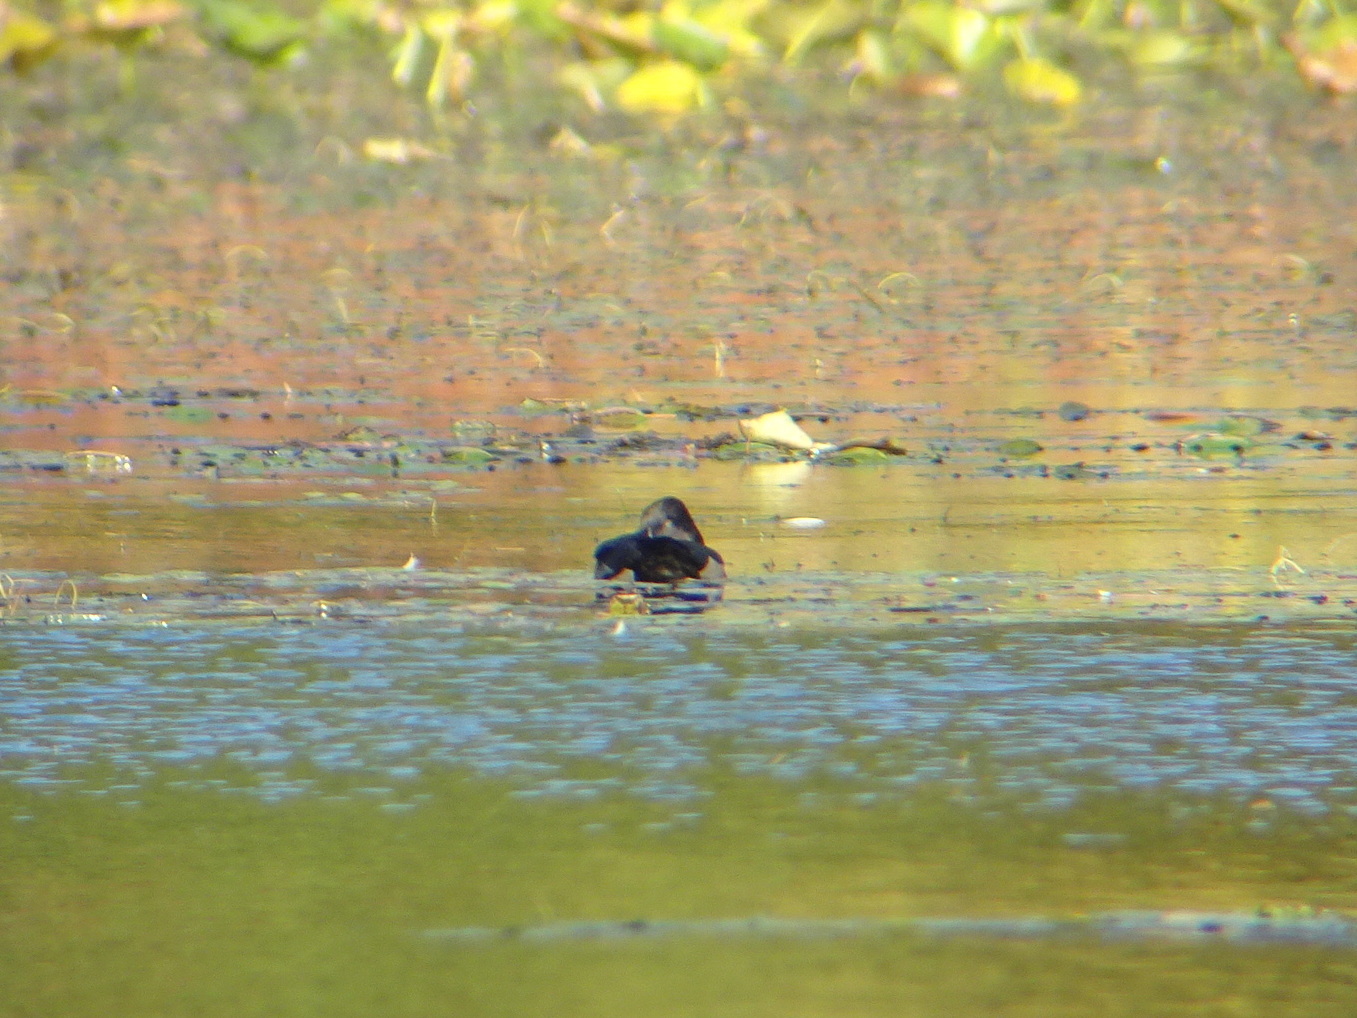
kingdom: Animalia
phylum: Chordata
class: Aves
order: Anseriformes
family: Anatidae
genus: Aythya
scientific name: Aythya collaris
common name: Ring-necked duck
